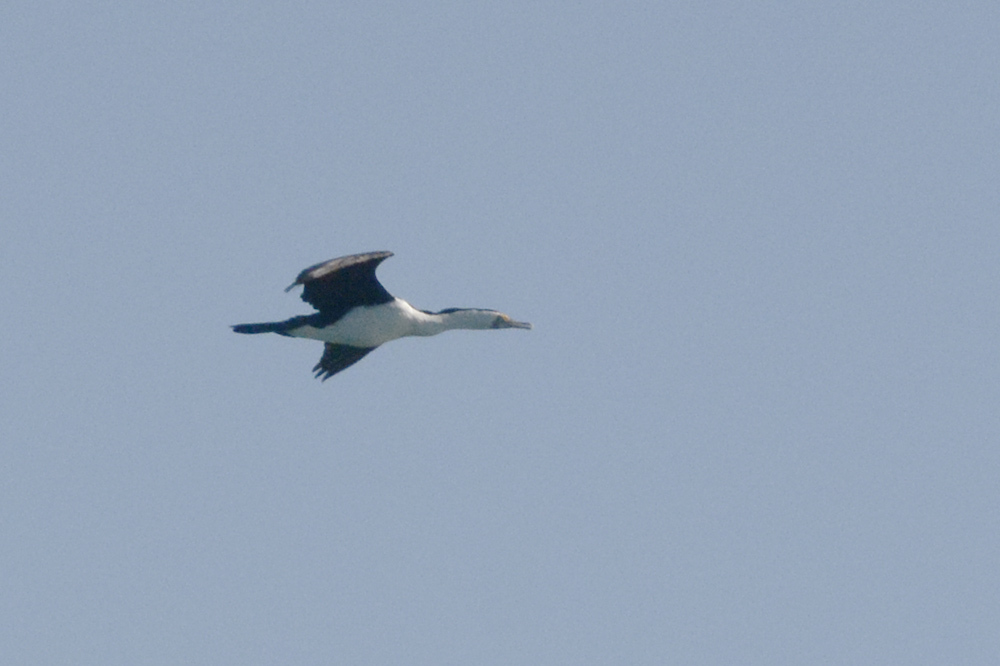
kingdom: Animalia
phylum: Chordata
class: Aves
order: Suliformes
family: Phalacrocoracidae
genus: Phalacrocorax
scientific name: Phalacrocorax varius
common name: Pied cormorant
